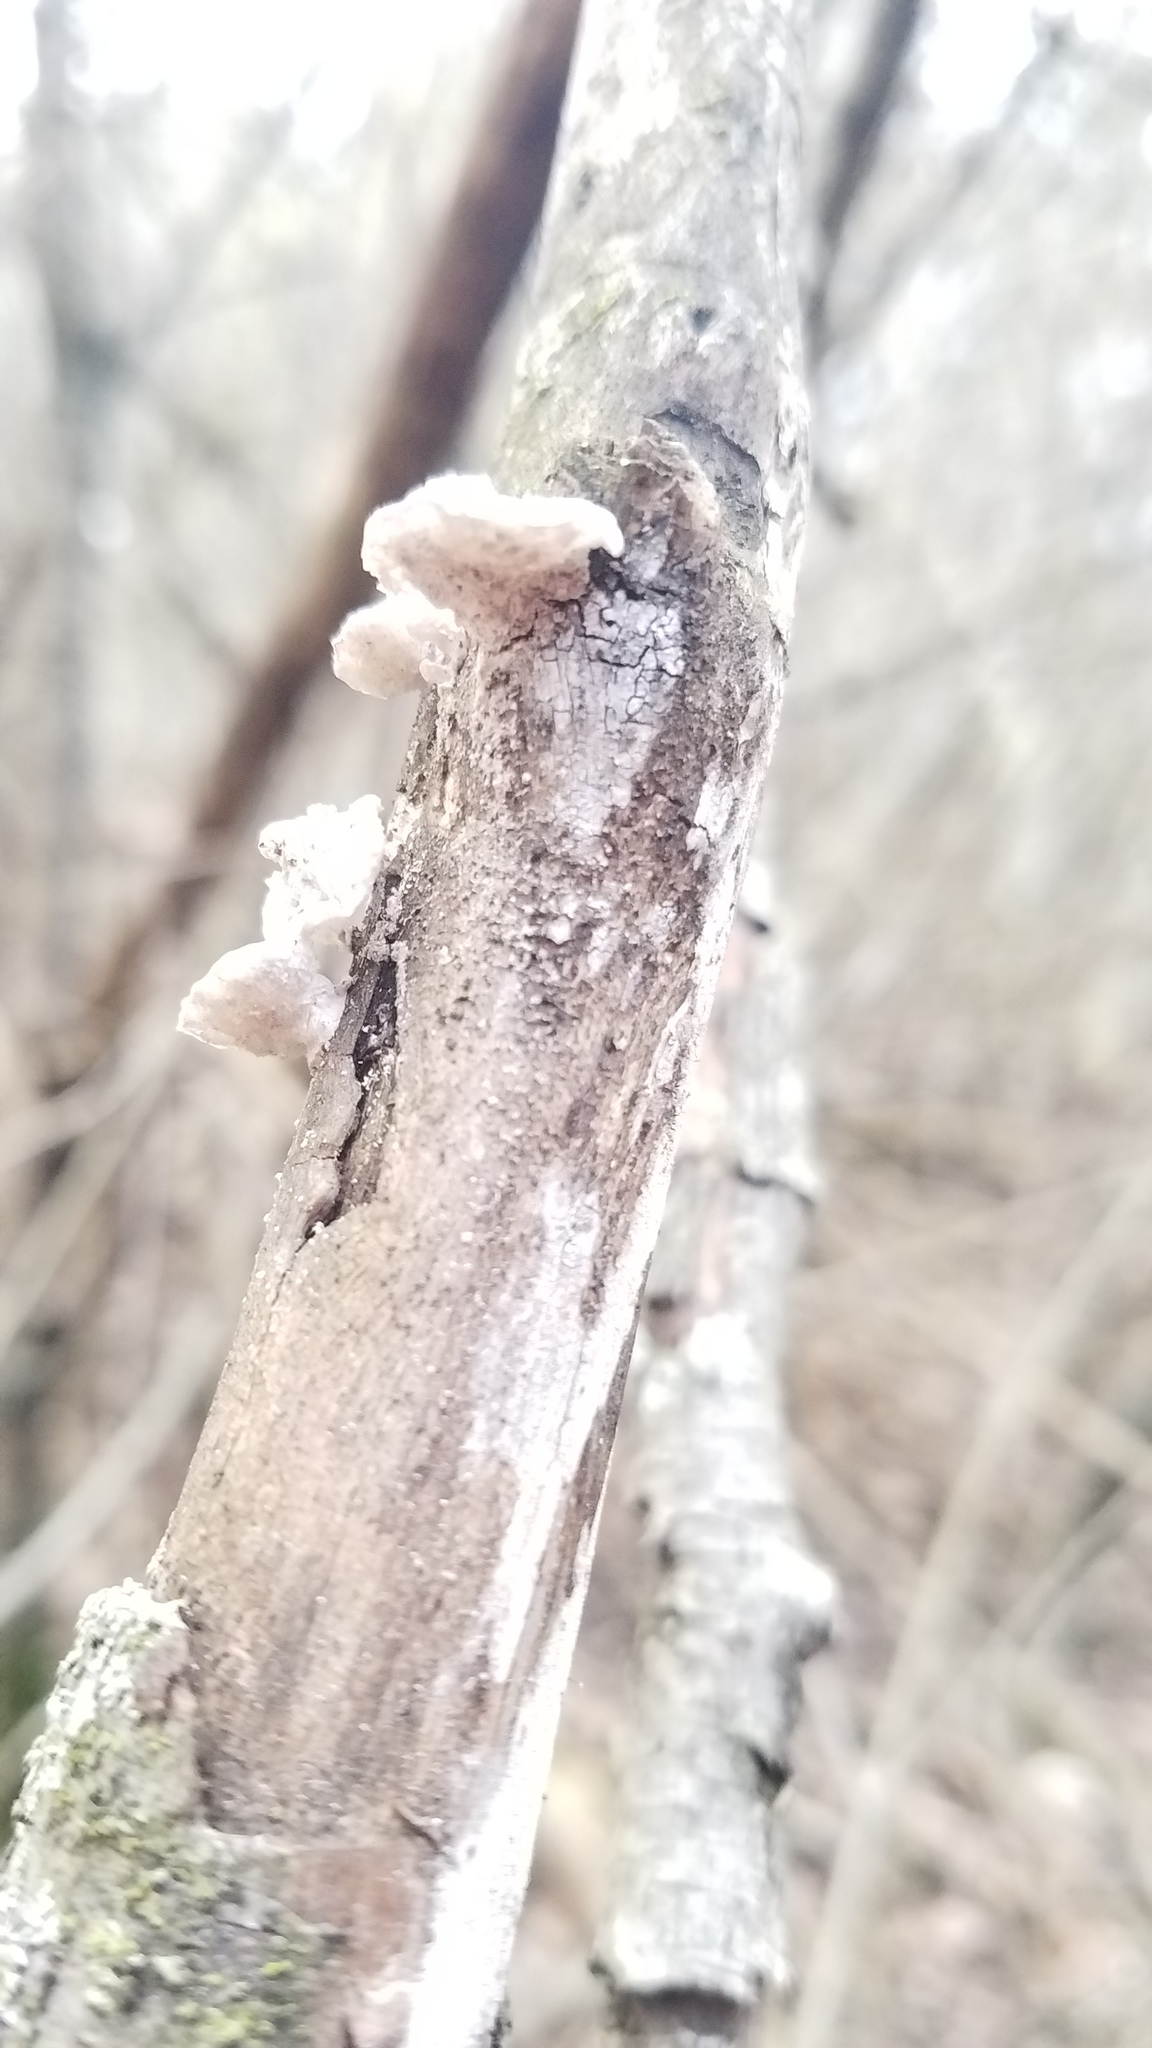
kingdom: Fungi
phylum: Basidiomycota
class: Agaricomycetes
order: Polyporales
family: Polyporaceae
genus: Poronidulus
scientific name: Poronidulus conchifer
